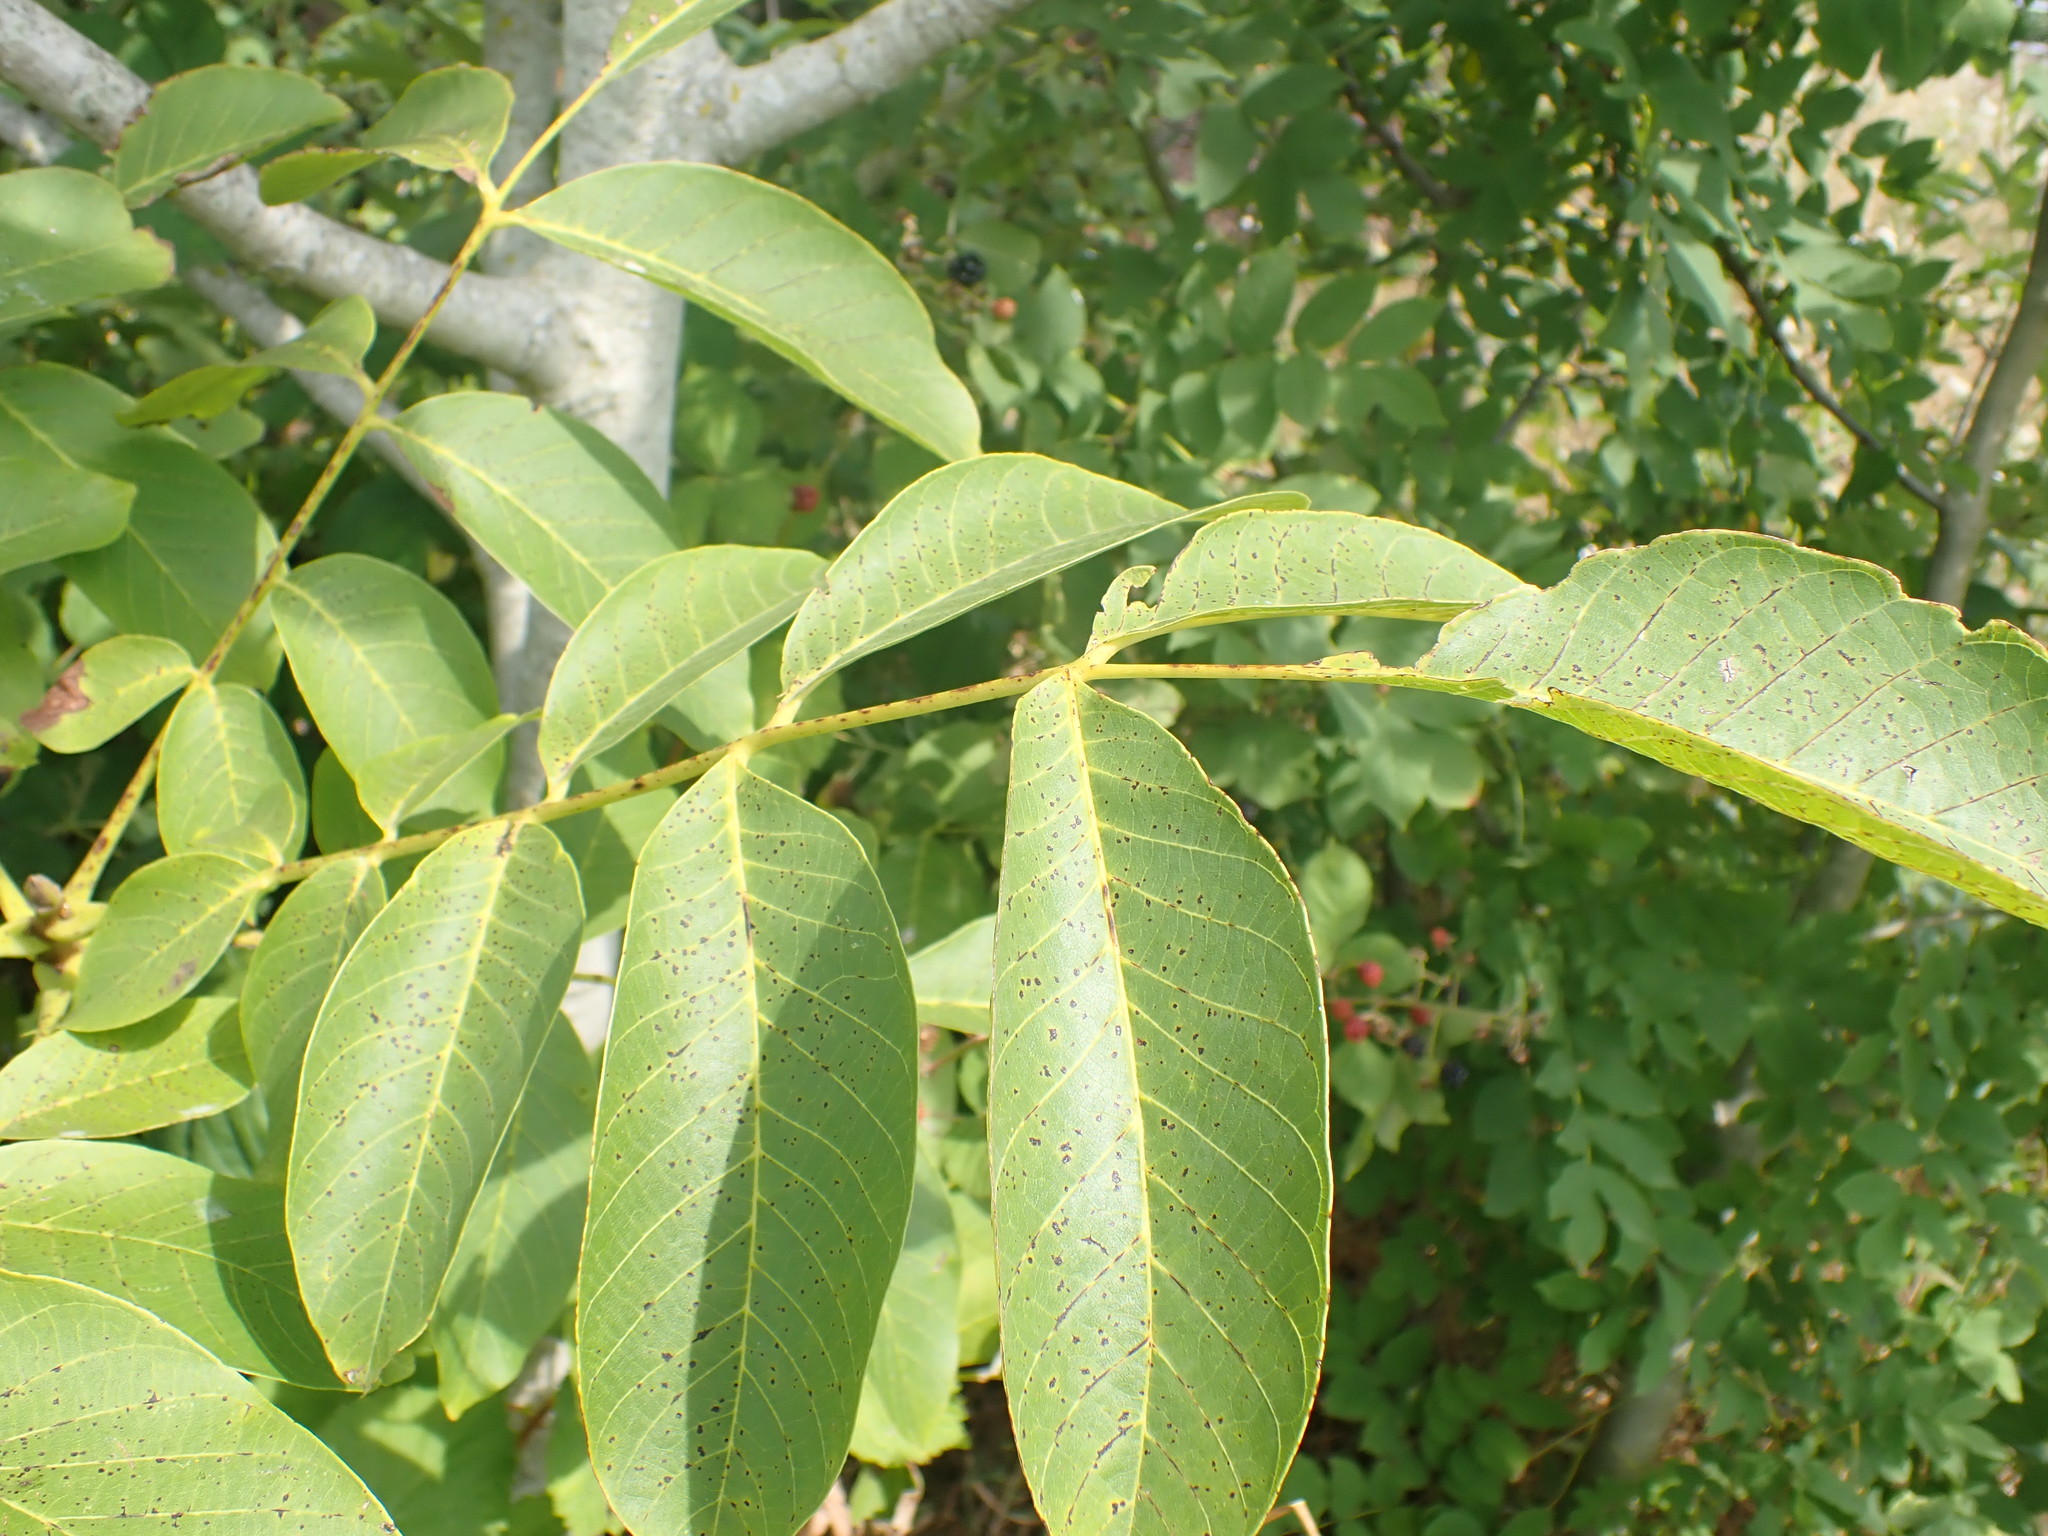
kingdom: Plantae
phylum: Tracheophyta
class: Magnoliopsida
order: Fagales
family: Juglandaceae
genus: Juglans
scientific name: Juglans regia
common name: Walnut
